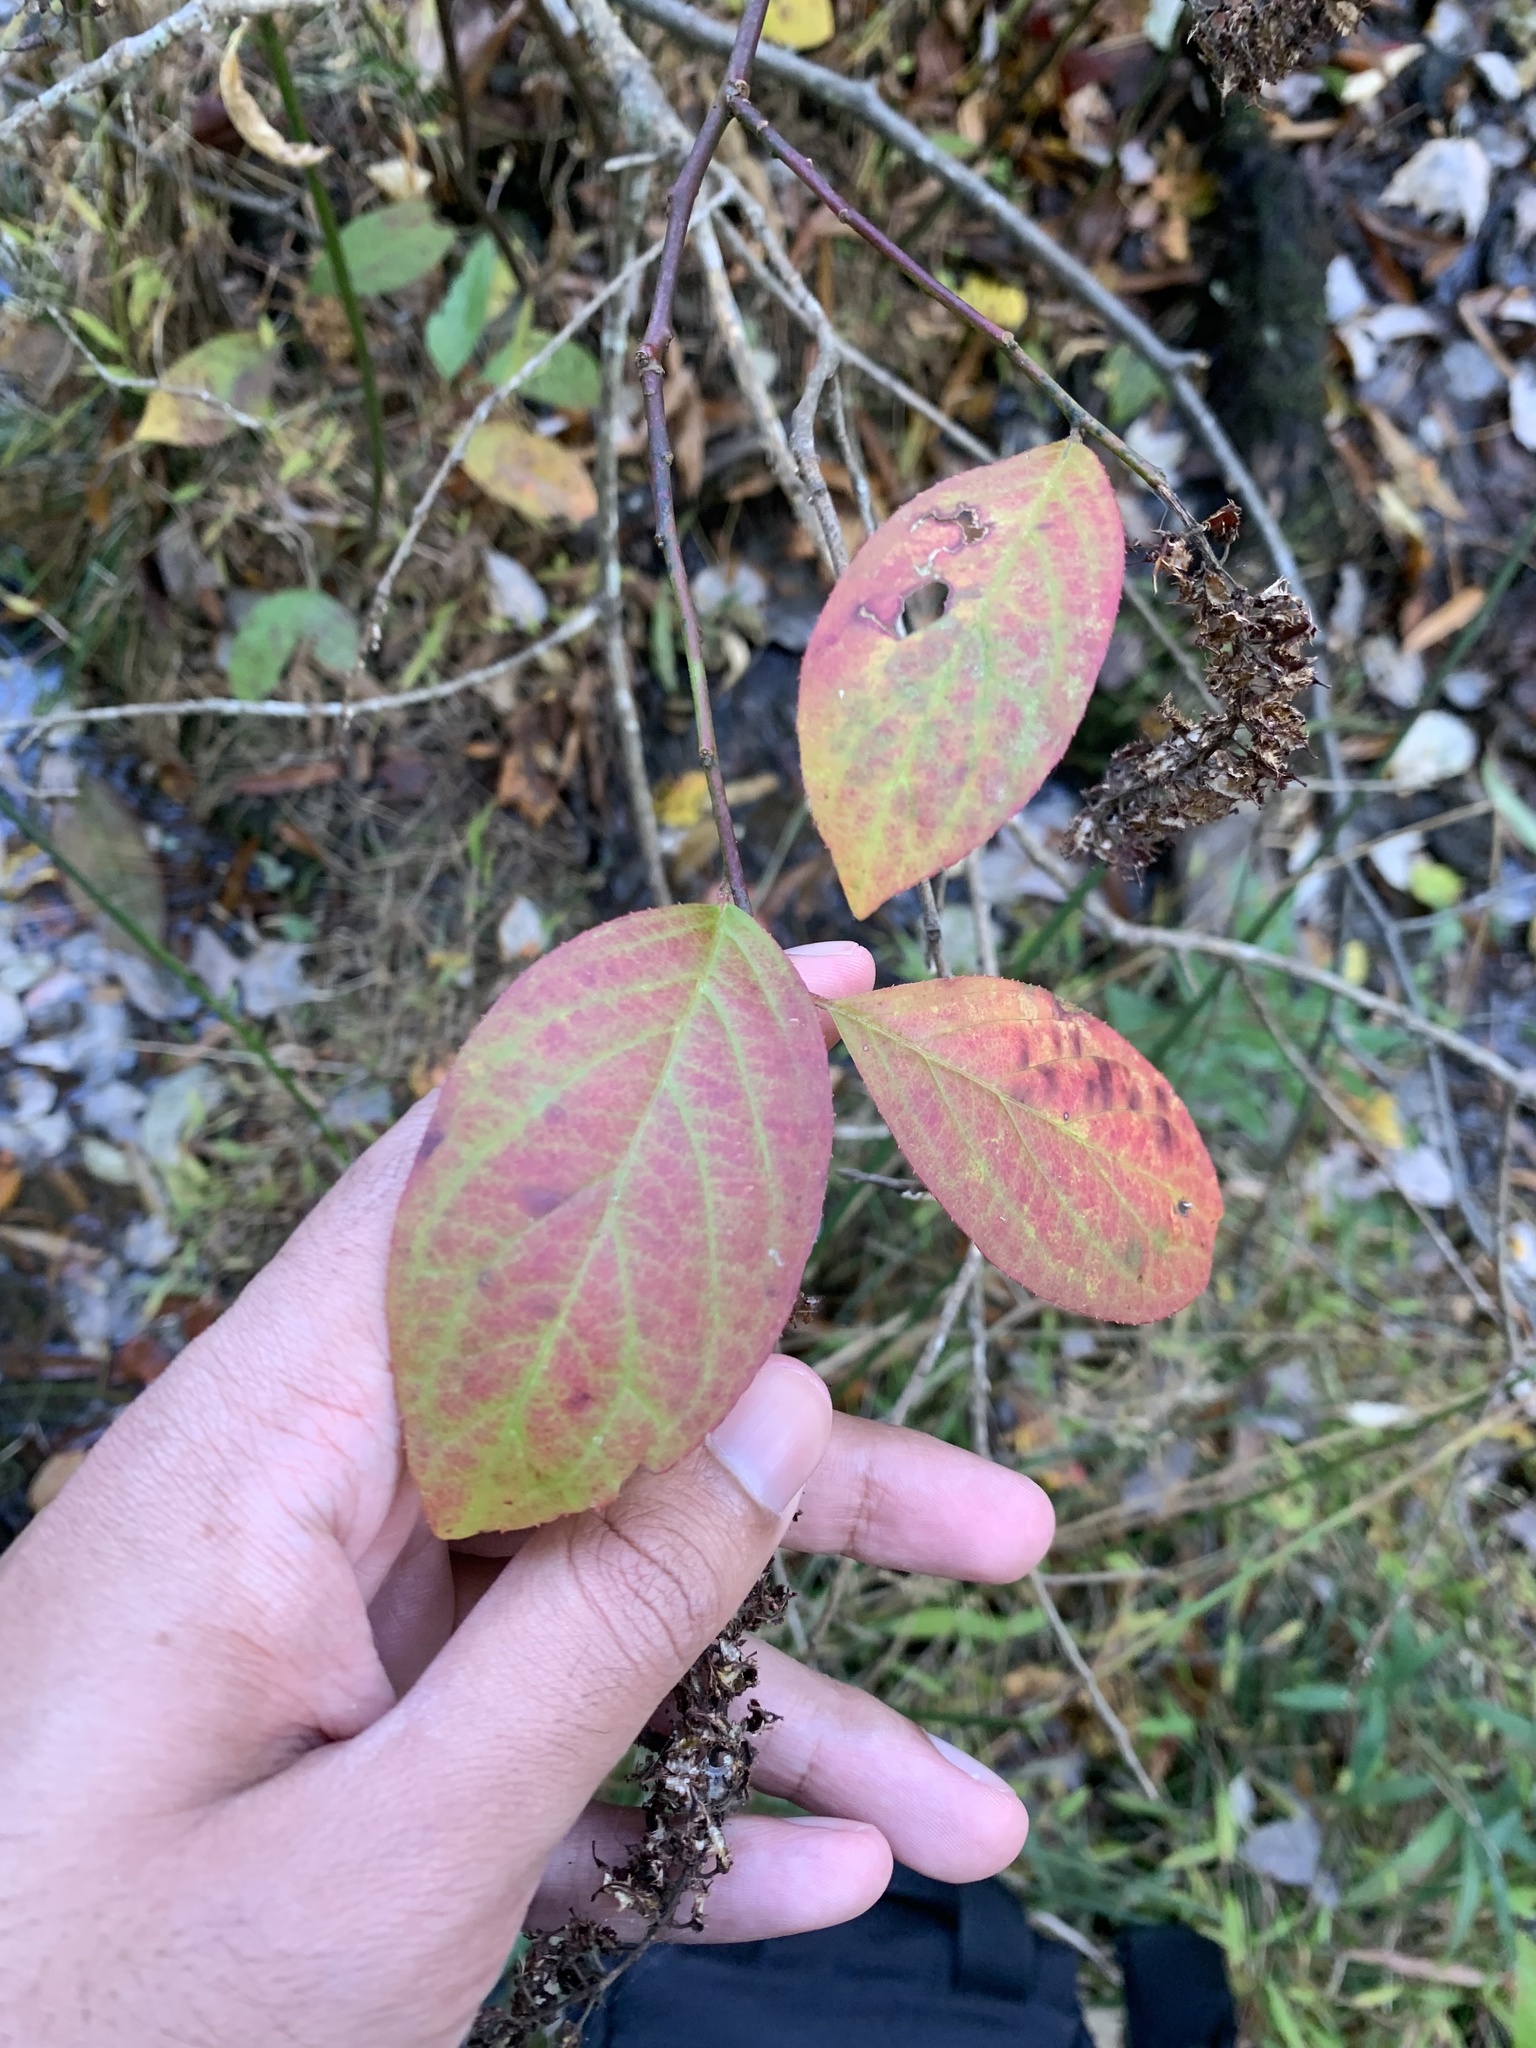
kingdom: Plantae
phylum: Tracheophyta
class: Magnoliopsida
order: Saxifragales
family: Iteaceae
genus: Itea
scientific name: Itea virginica
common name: Sweetspire
